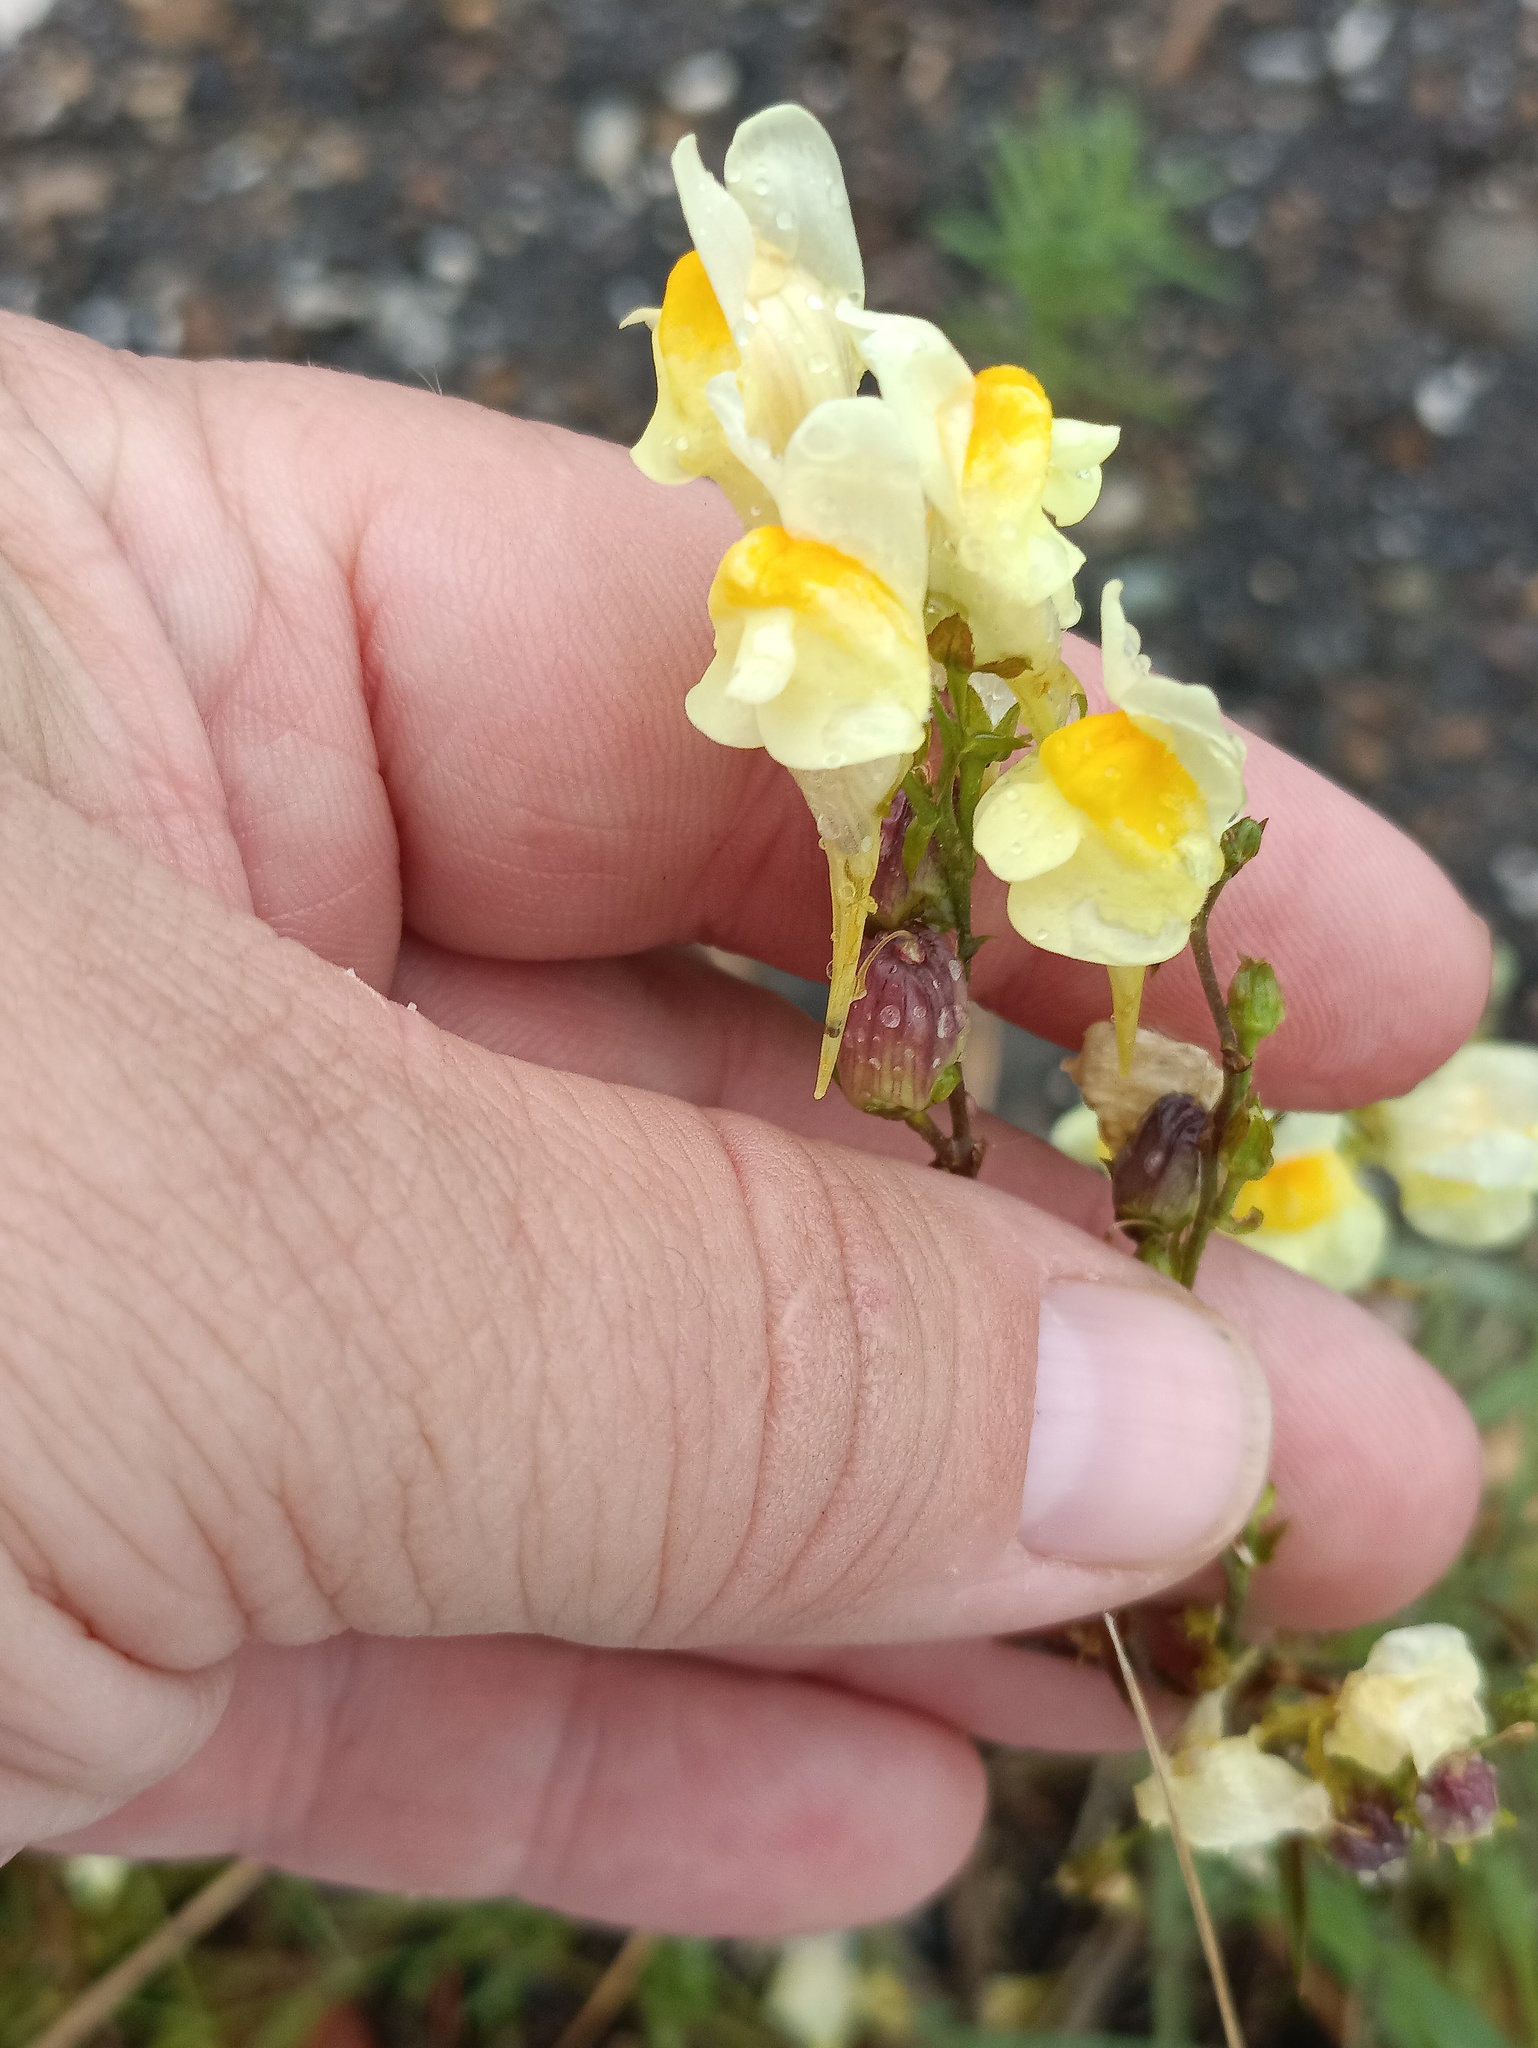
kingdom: Plantae
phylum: Tracheophyta
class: Magnoliopsida
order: Lamiales
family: Plantaginaceae
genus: Linaria
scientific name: Linaria vulgaris
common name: Butter and eggs
